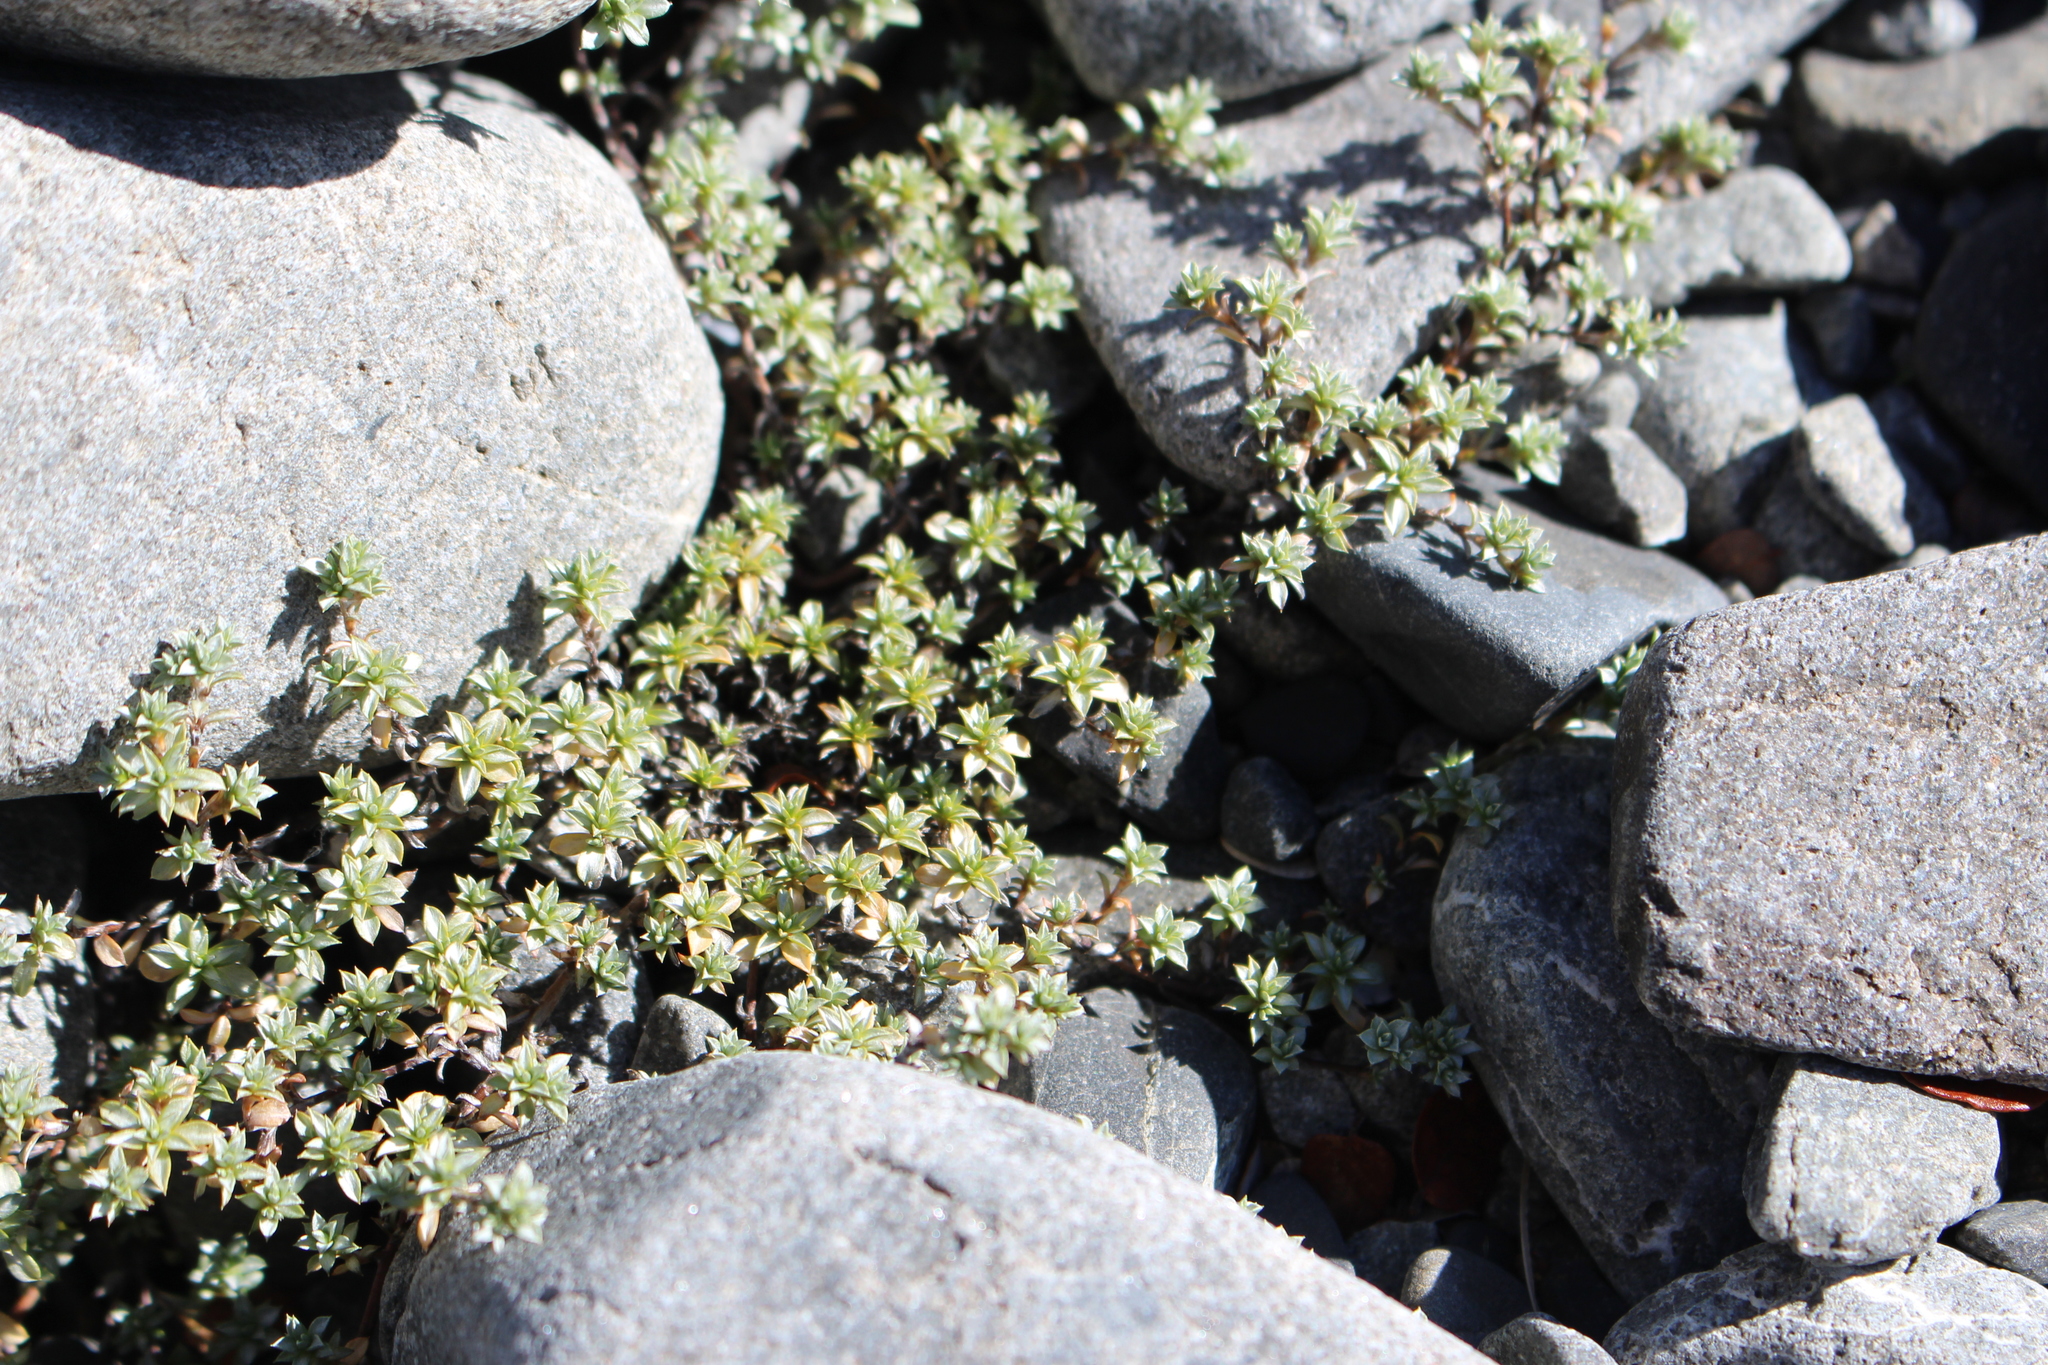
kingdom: Plantae
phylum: Tracheophyta
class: Magnoliopsida
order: Asterales
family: Asteraceae
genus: Raoulia
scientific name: Raoulia tenuicaulis
